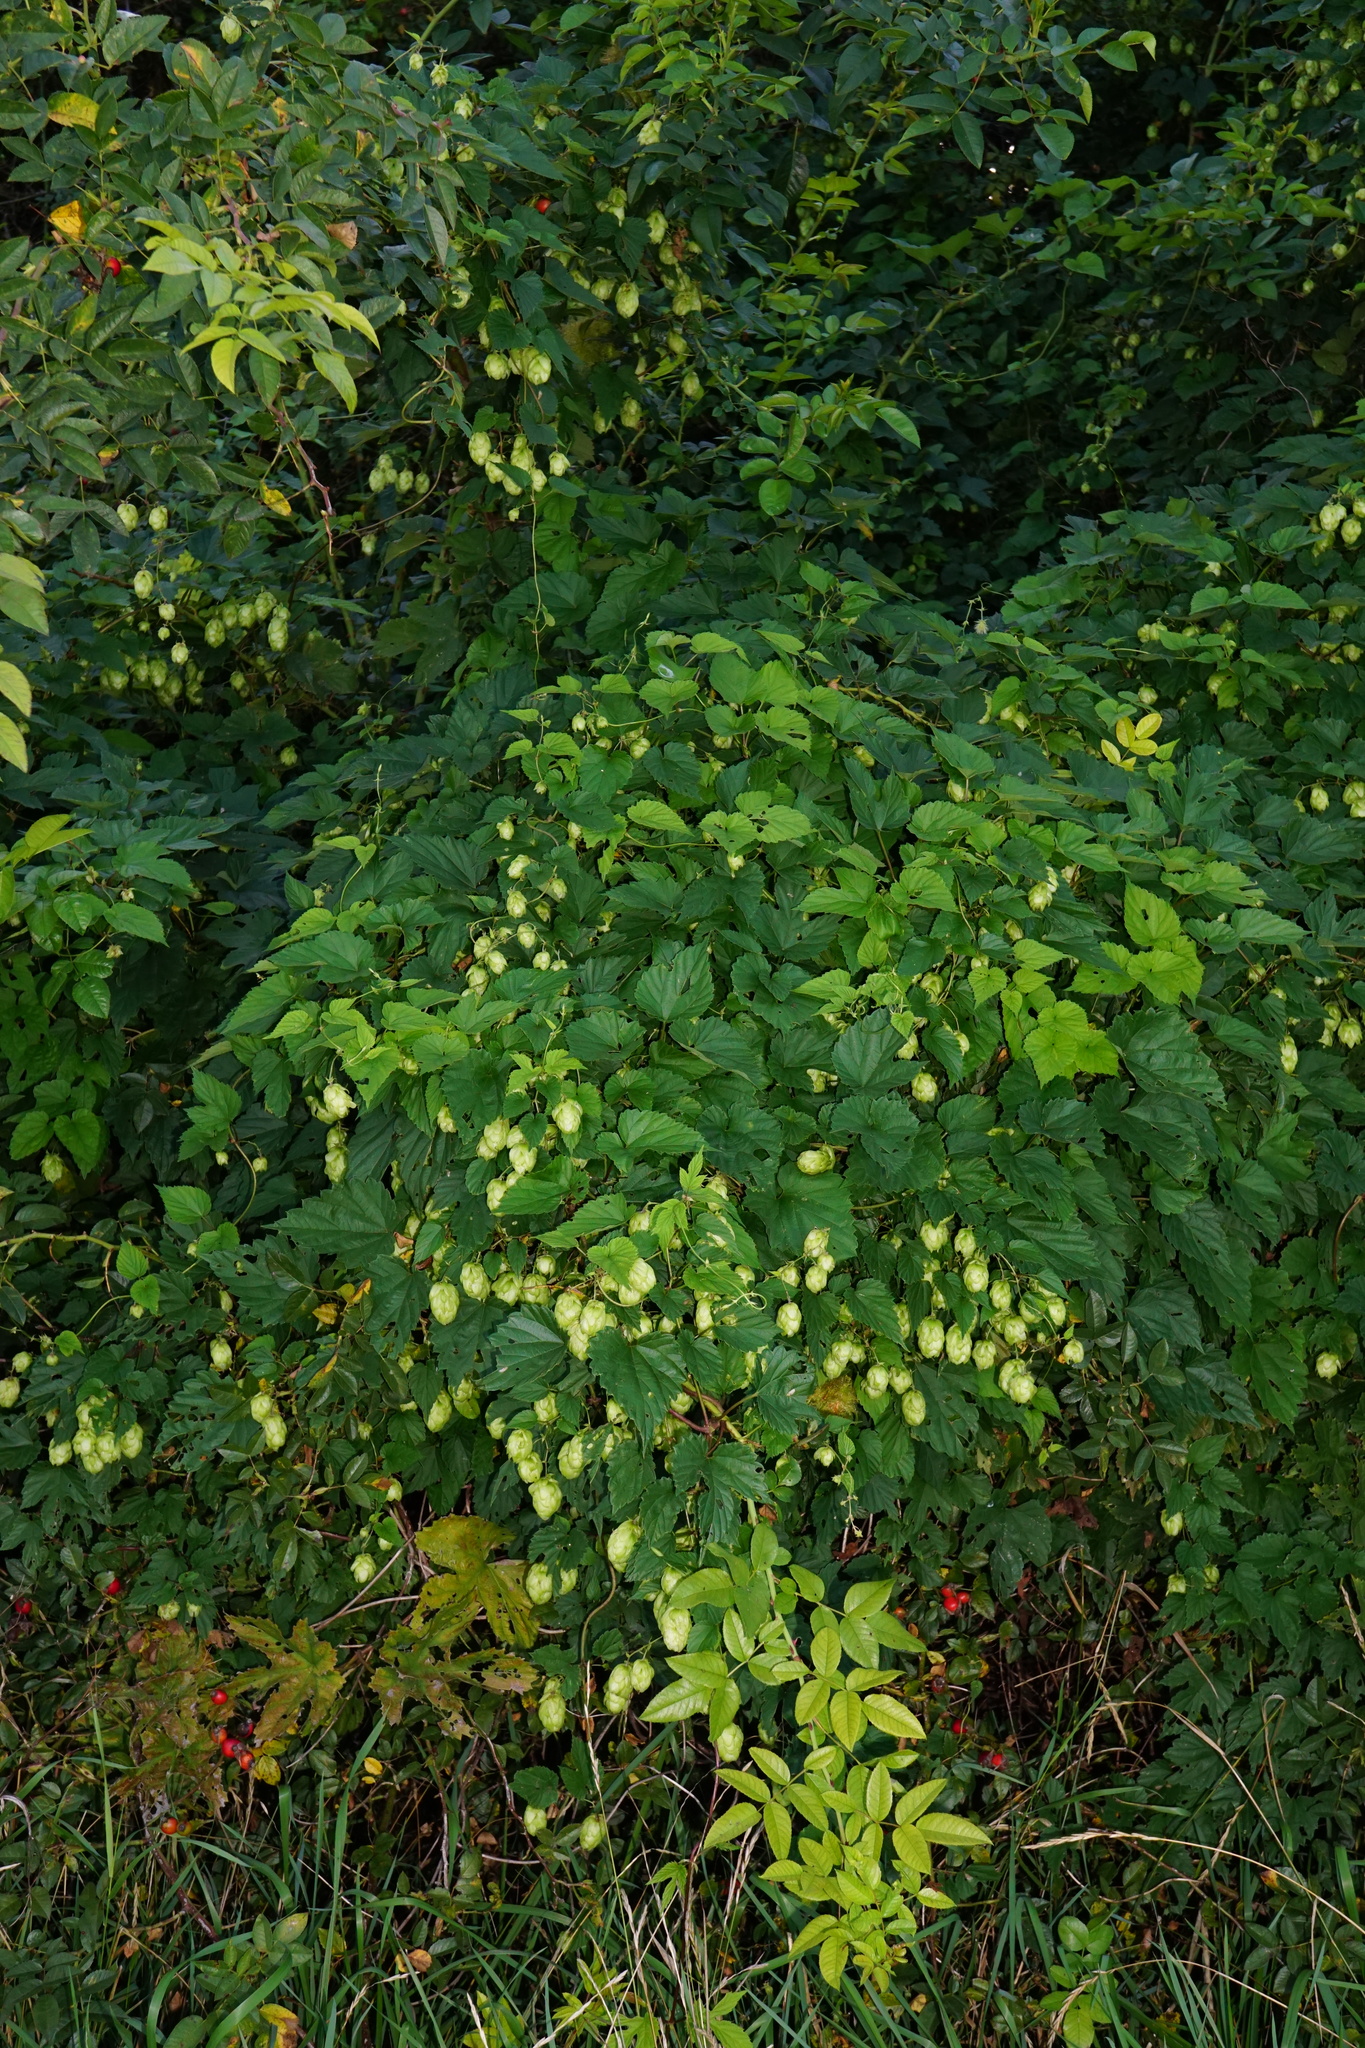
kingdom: Plantae
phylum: Tracheophyta
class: Magnoliopsida
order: Rosales
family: Cannabaceae
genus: Humulus
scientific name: Humulus lupulus
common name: Hop
